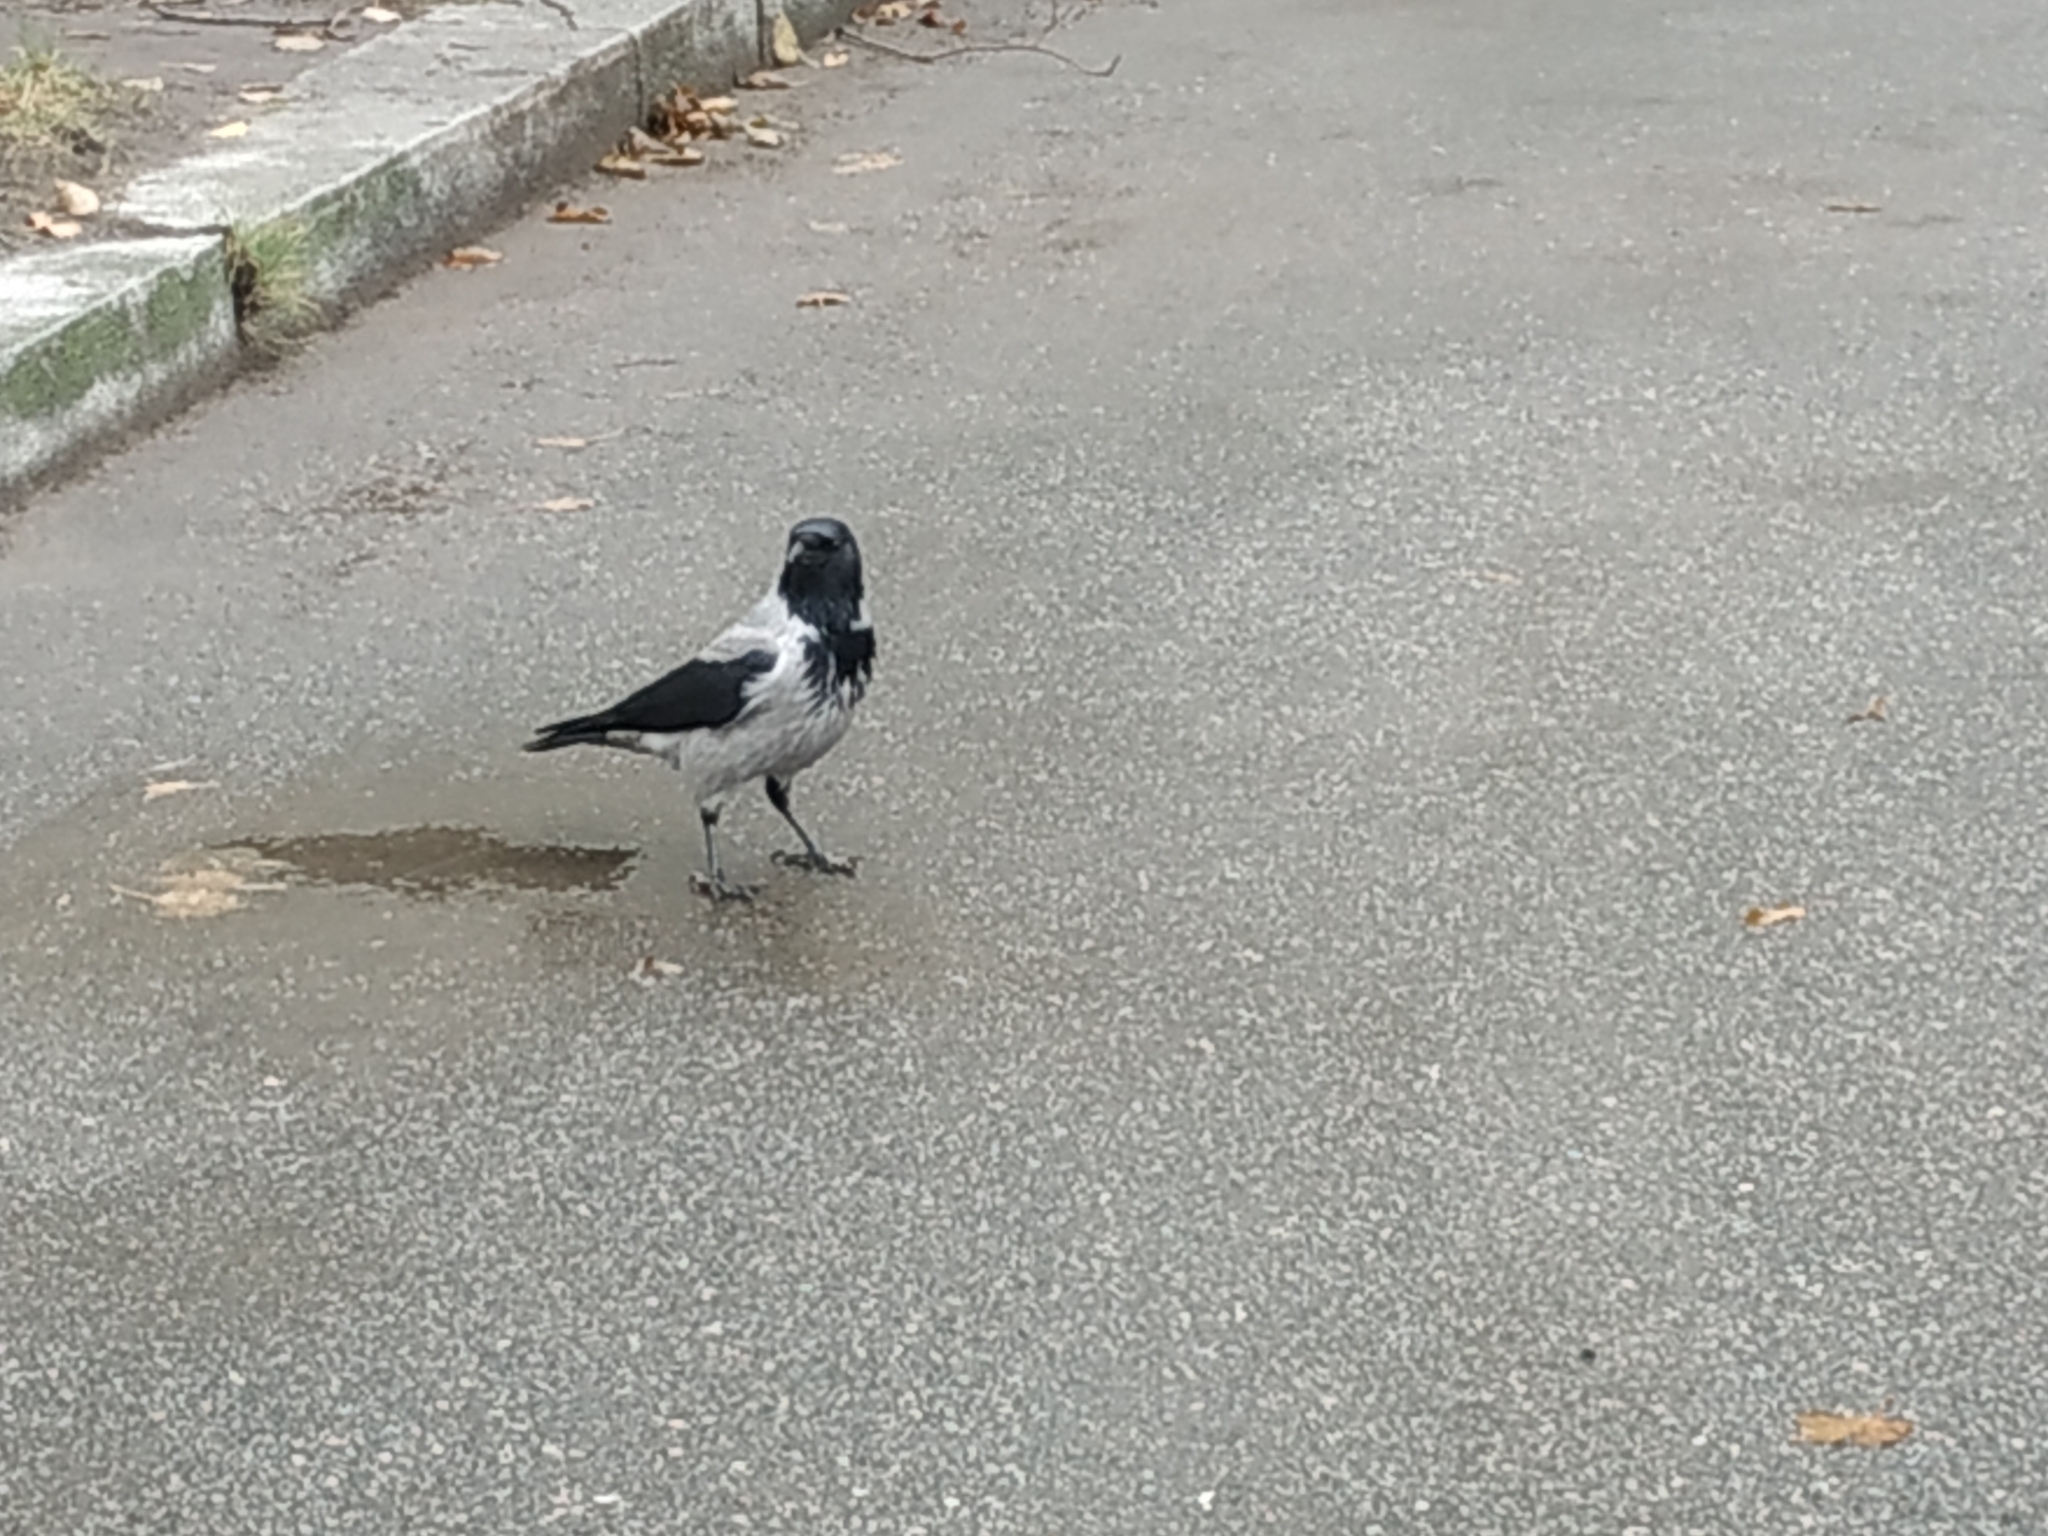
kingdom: Animalia
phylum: Chordata
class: Aves
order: Passeriformes
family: Corvidae
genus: Corvus
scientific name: Corvus cornix
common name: Hooded crow
